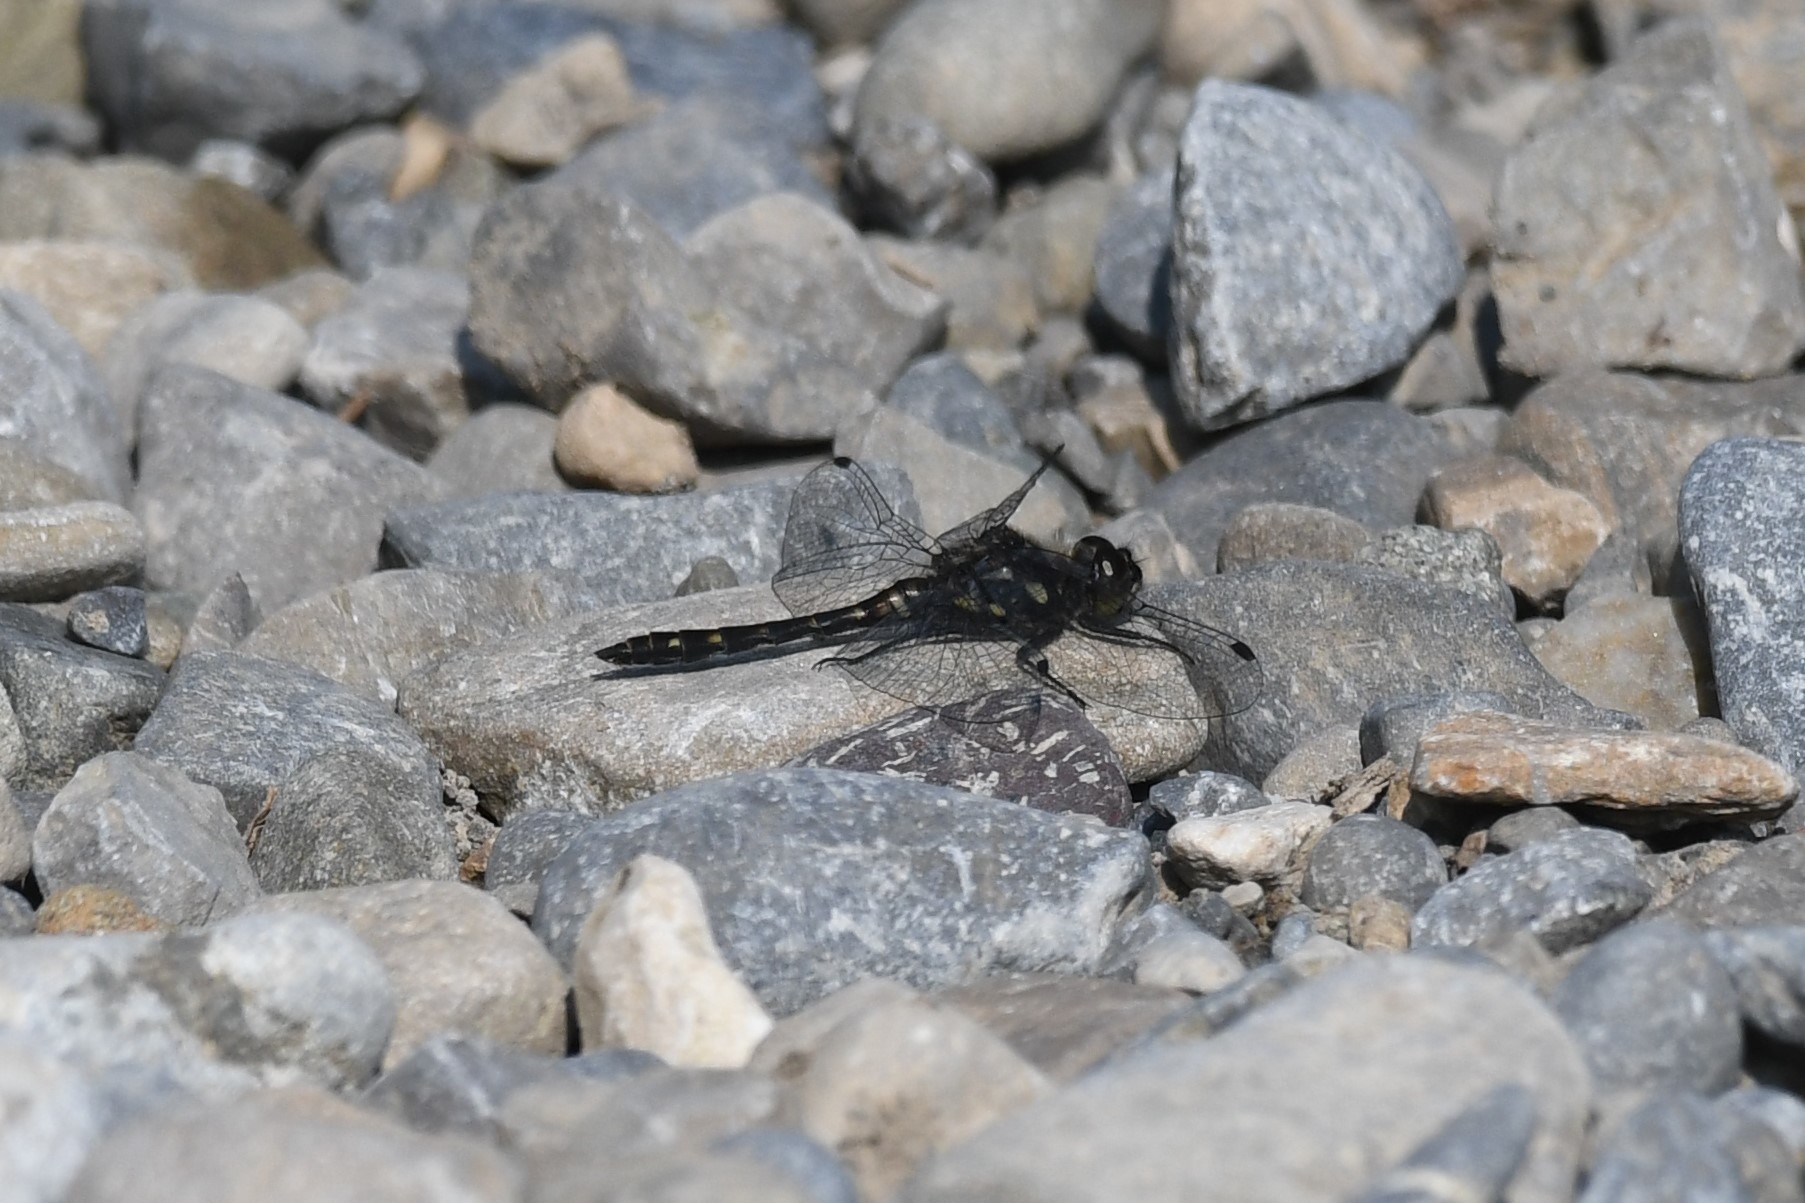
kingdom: Animalia
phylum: Arthropoda
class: Insecta
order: Odonata
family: Libellulidae
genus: Sympetrum
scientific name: Sympetrum danae
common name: Black darter
